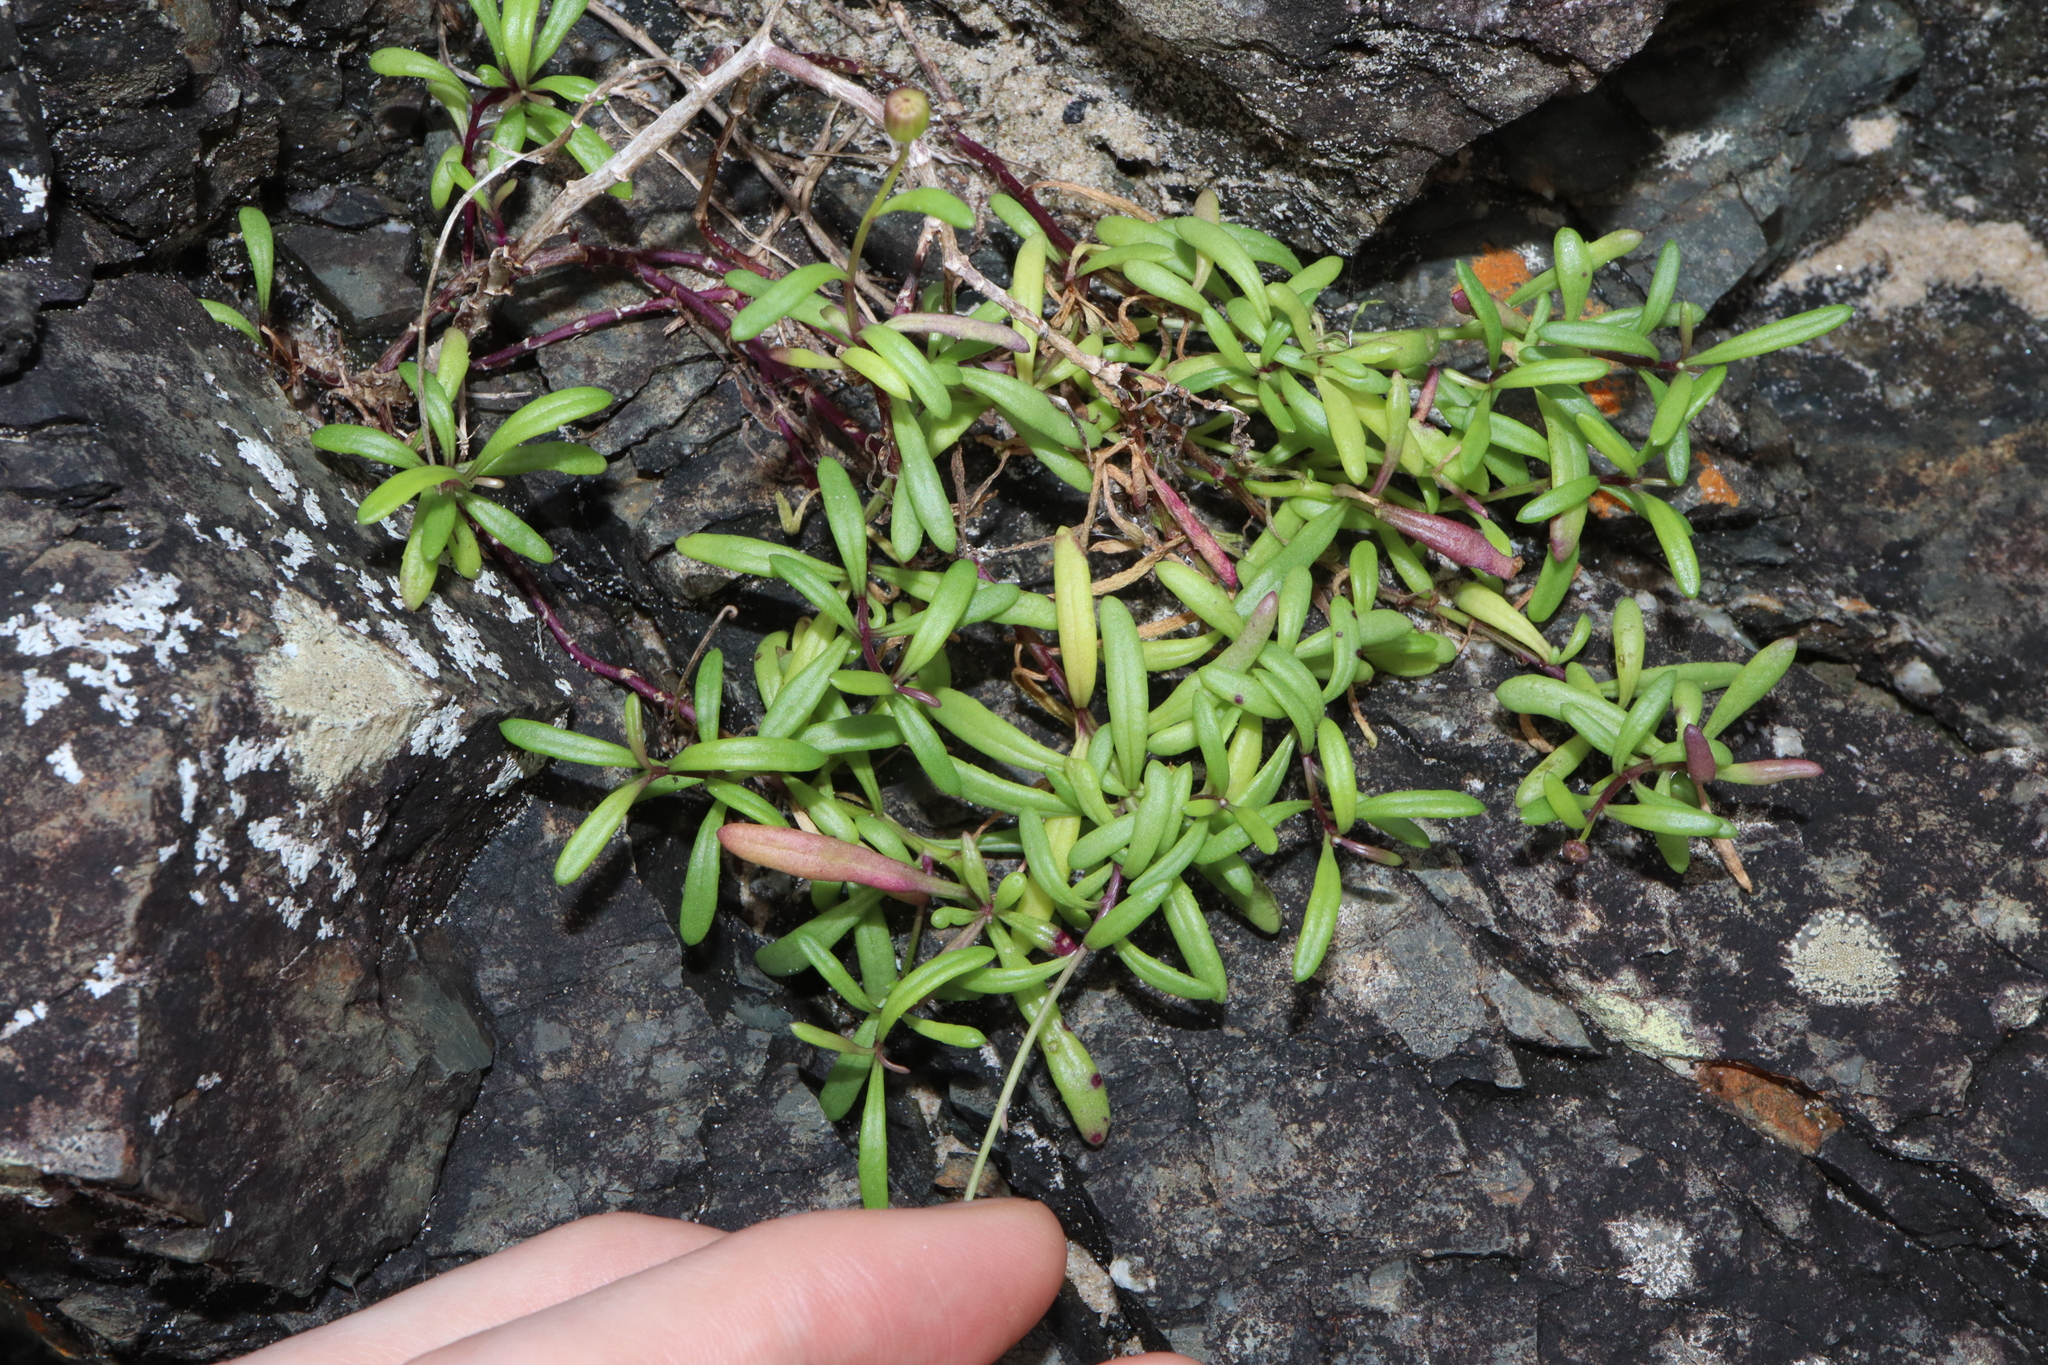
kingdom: Plantae
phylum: Tracheophyta
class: Magnoliopsida
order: Asterales
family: Asteraceae
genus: Senecio
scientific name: Senecio pinnatifolius
